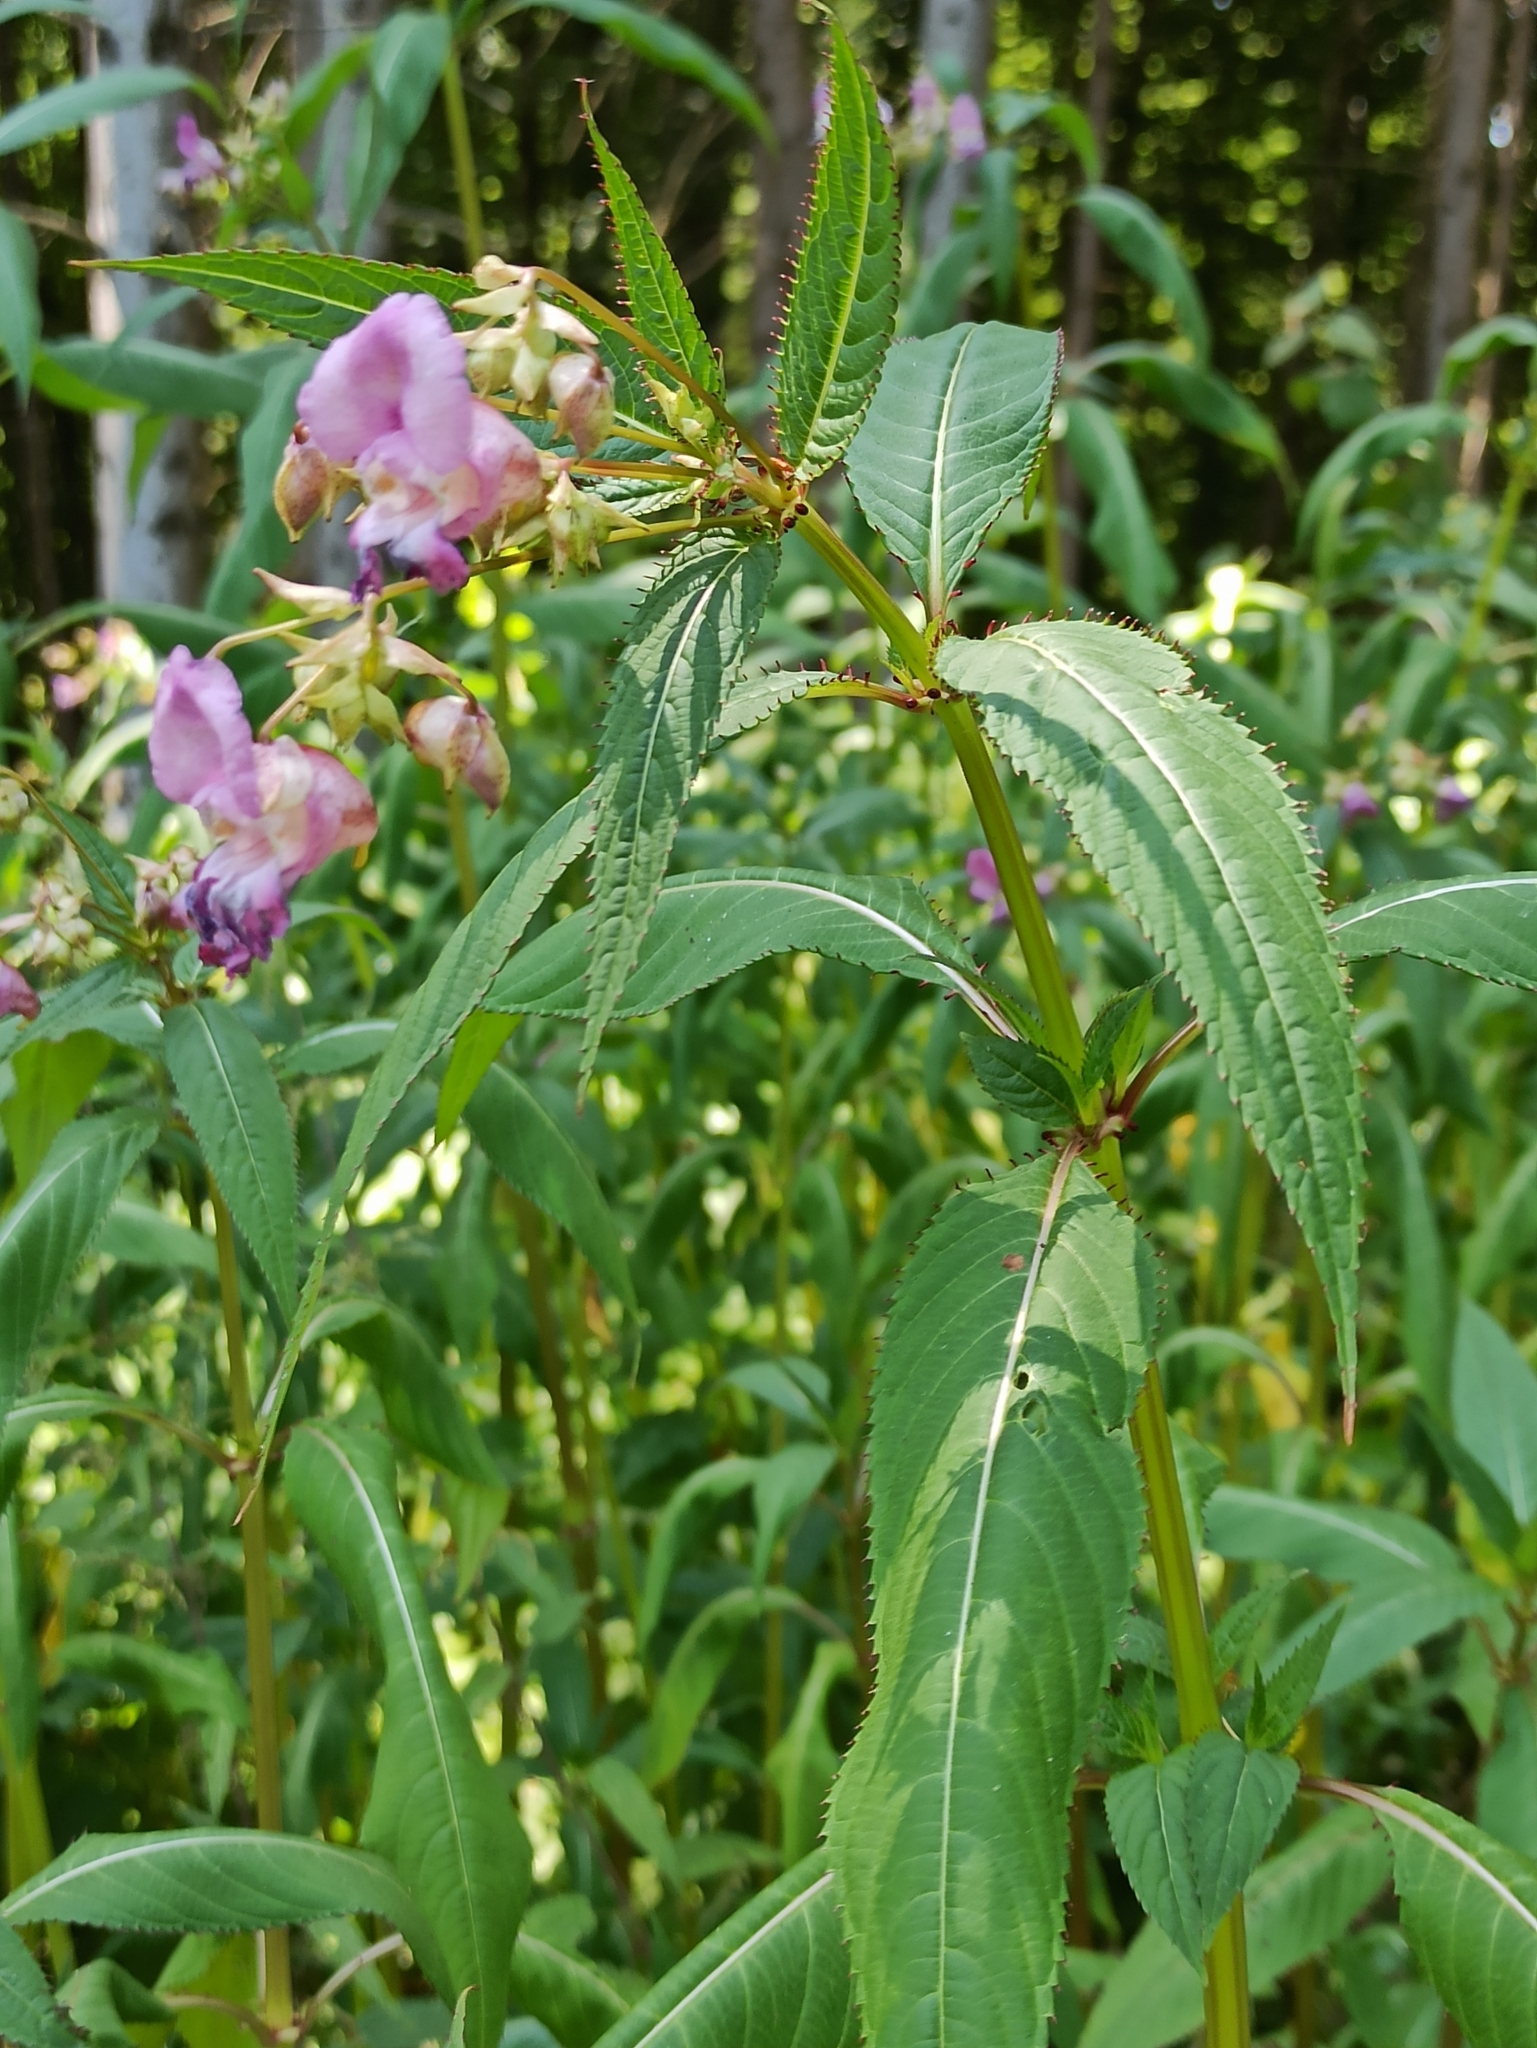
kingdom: Plantae
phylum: Tracheophyta
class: Magnoliopsida
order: Ericales
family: Balsaminaceae
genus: Impatiens
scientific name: Impatiens glandulifera
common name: Himalayan balsam
